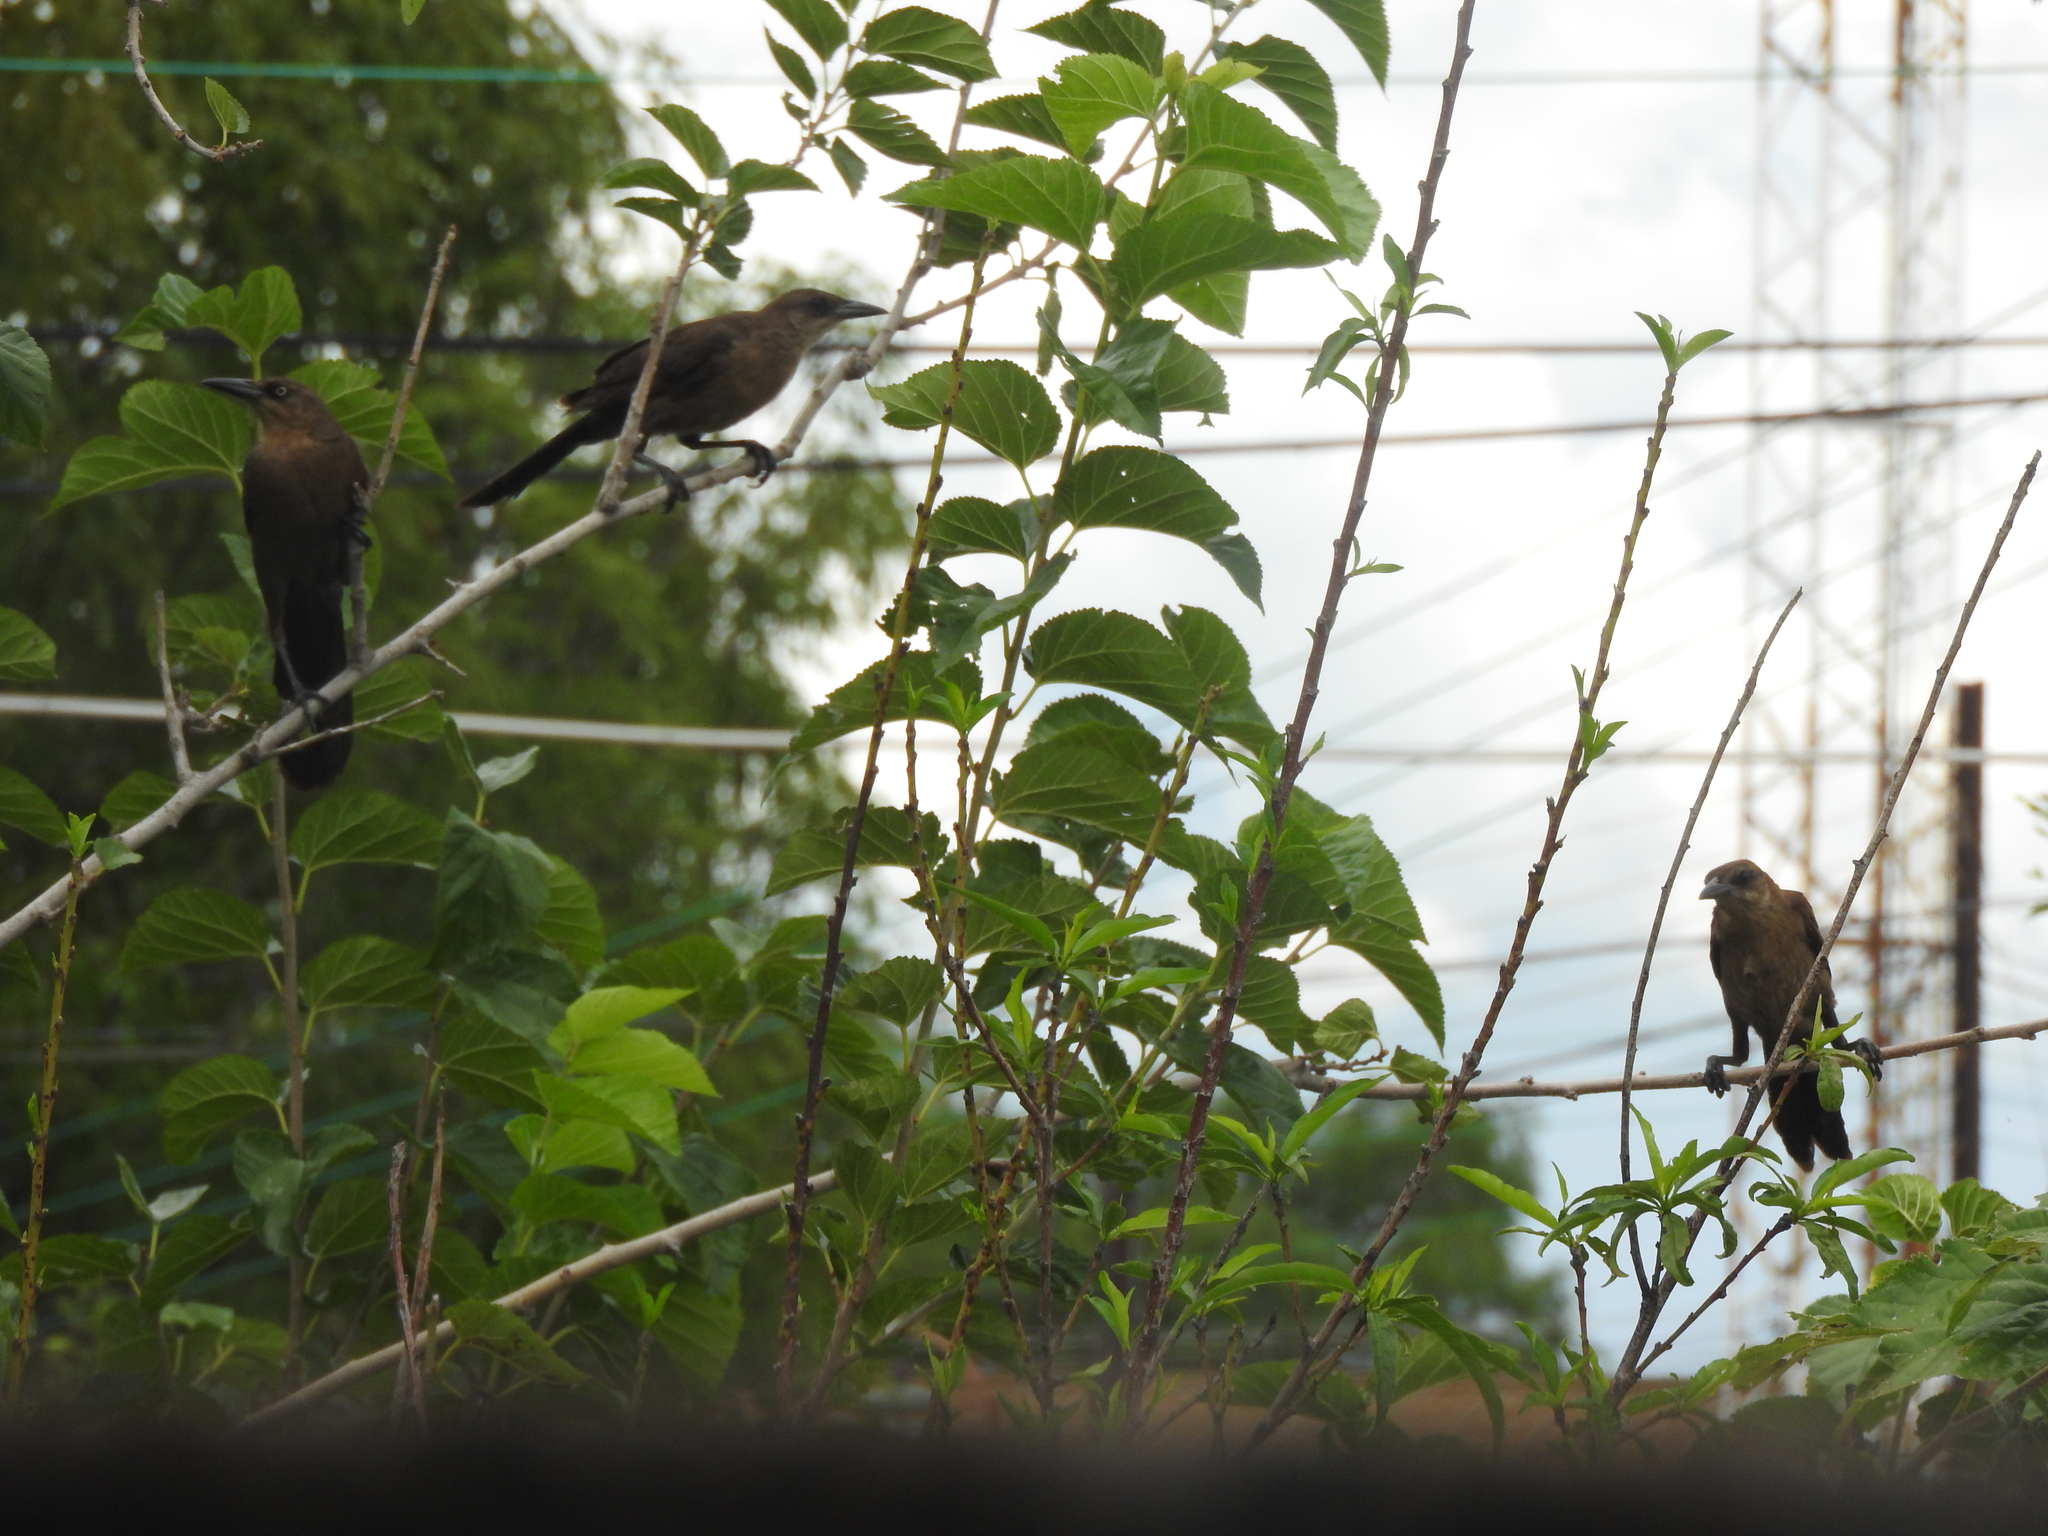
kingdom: Animalia
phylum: Chordata
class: Aves
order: Passeriformes
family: Icteridae
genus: Quiscalus
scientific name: Quiscalus mexicanus
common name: Great-tailed grackle
